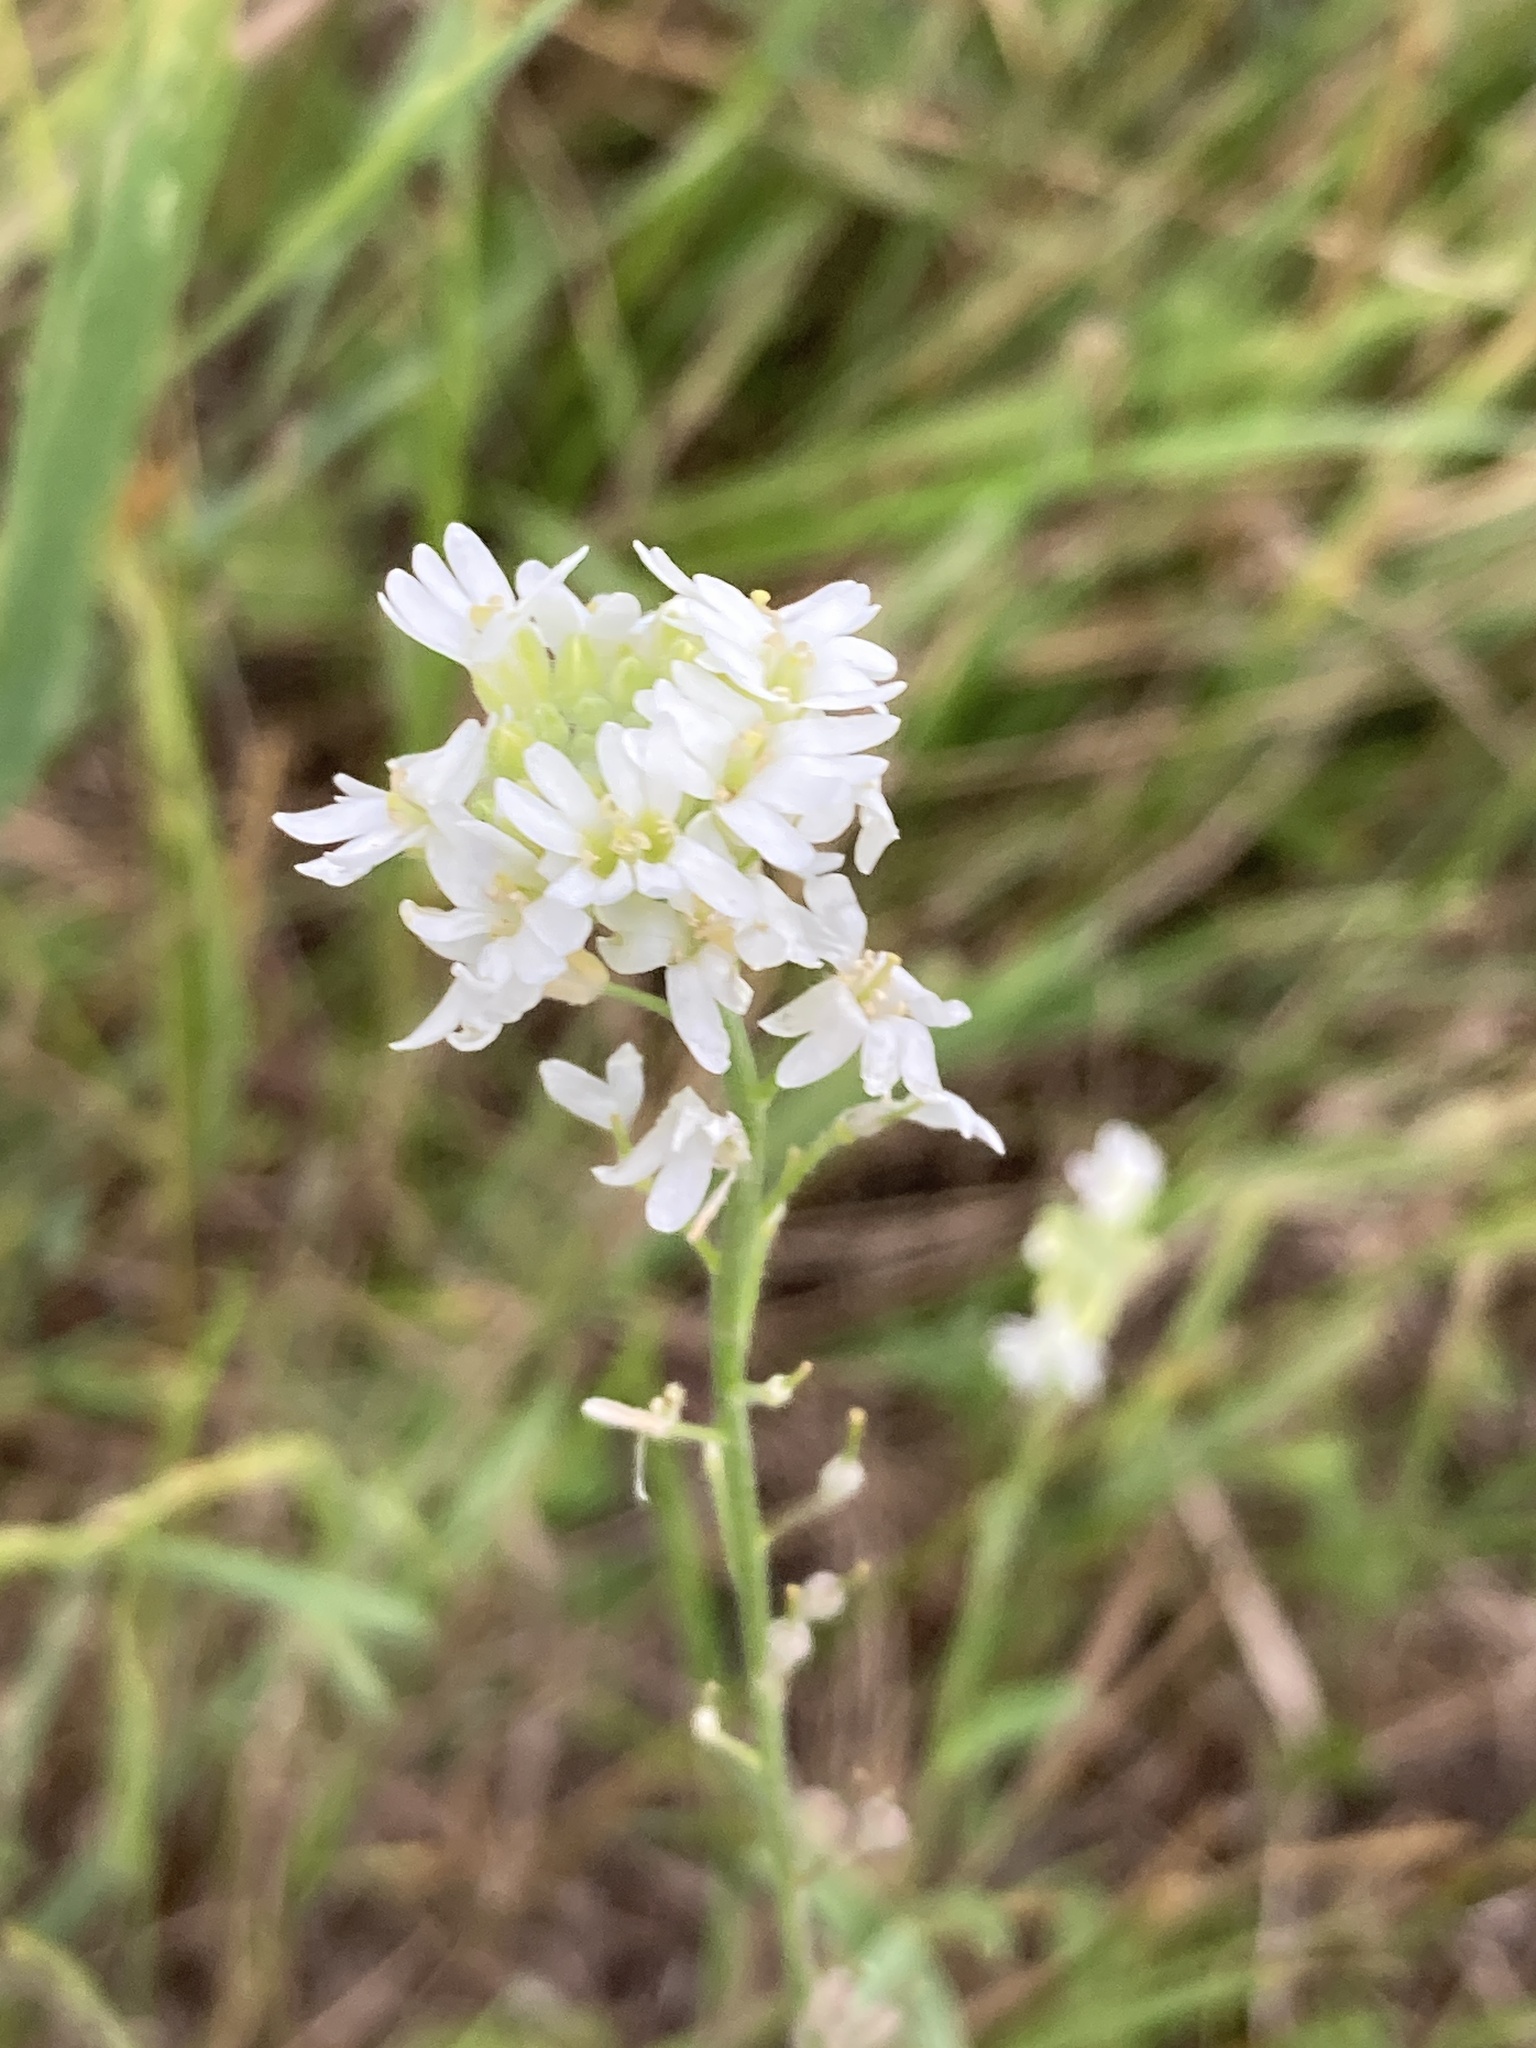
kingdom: Plantae
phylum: Tracheophyta
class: Magnoliopsida
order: Brassicales
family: Brassicaceae
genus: Berteroa
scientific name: Berteroa incana
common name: Hoary alison
